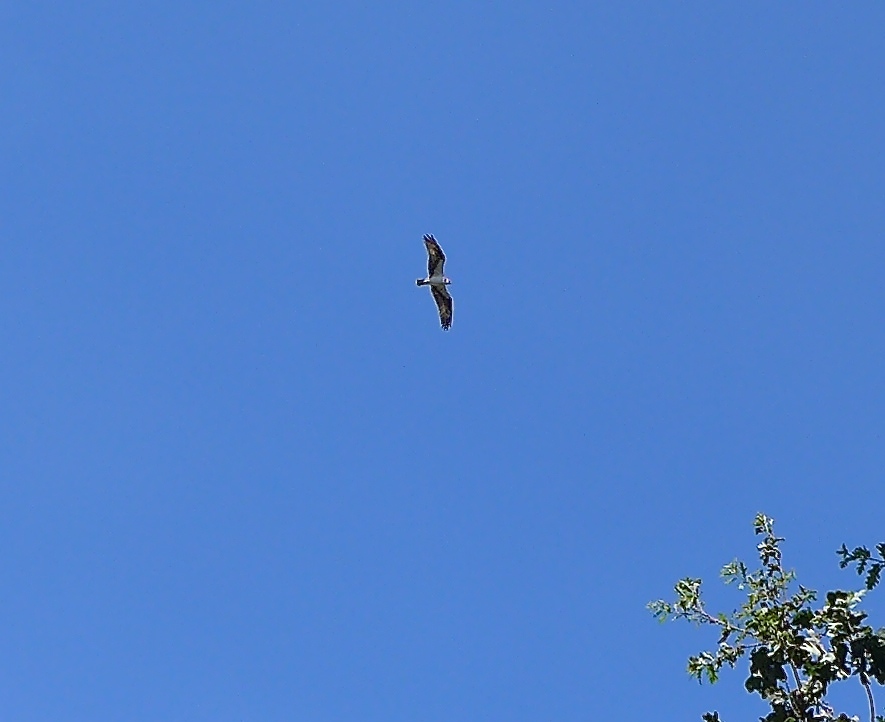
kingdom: Animalia
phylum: Chordata
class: Aves
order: Accipitriformes
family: Pandionidae
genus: Pandion
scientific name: Pandion haliaetus
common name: Osprey
